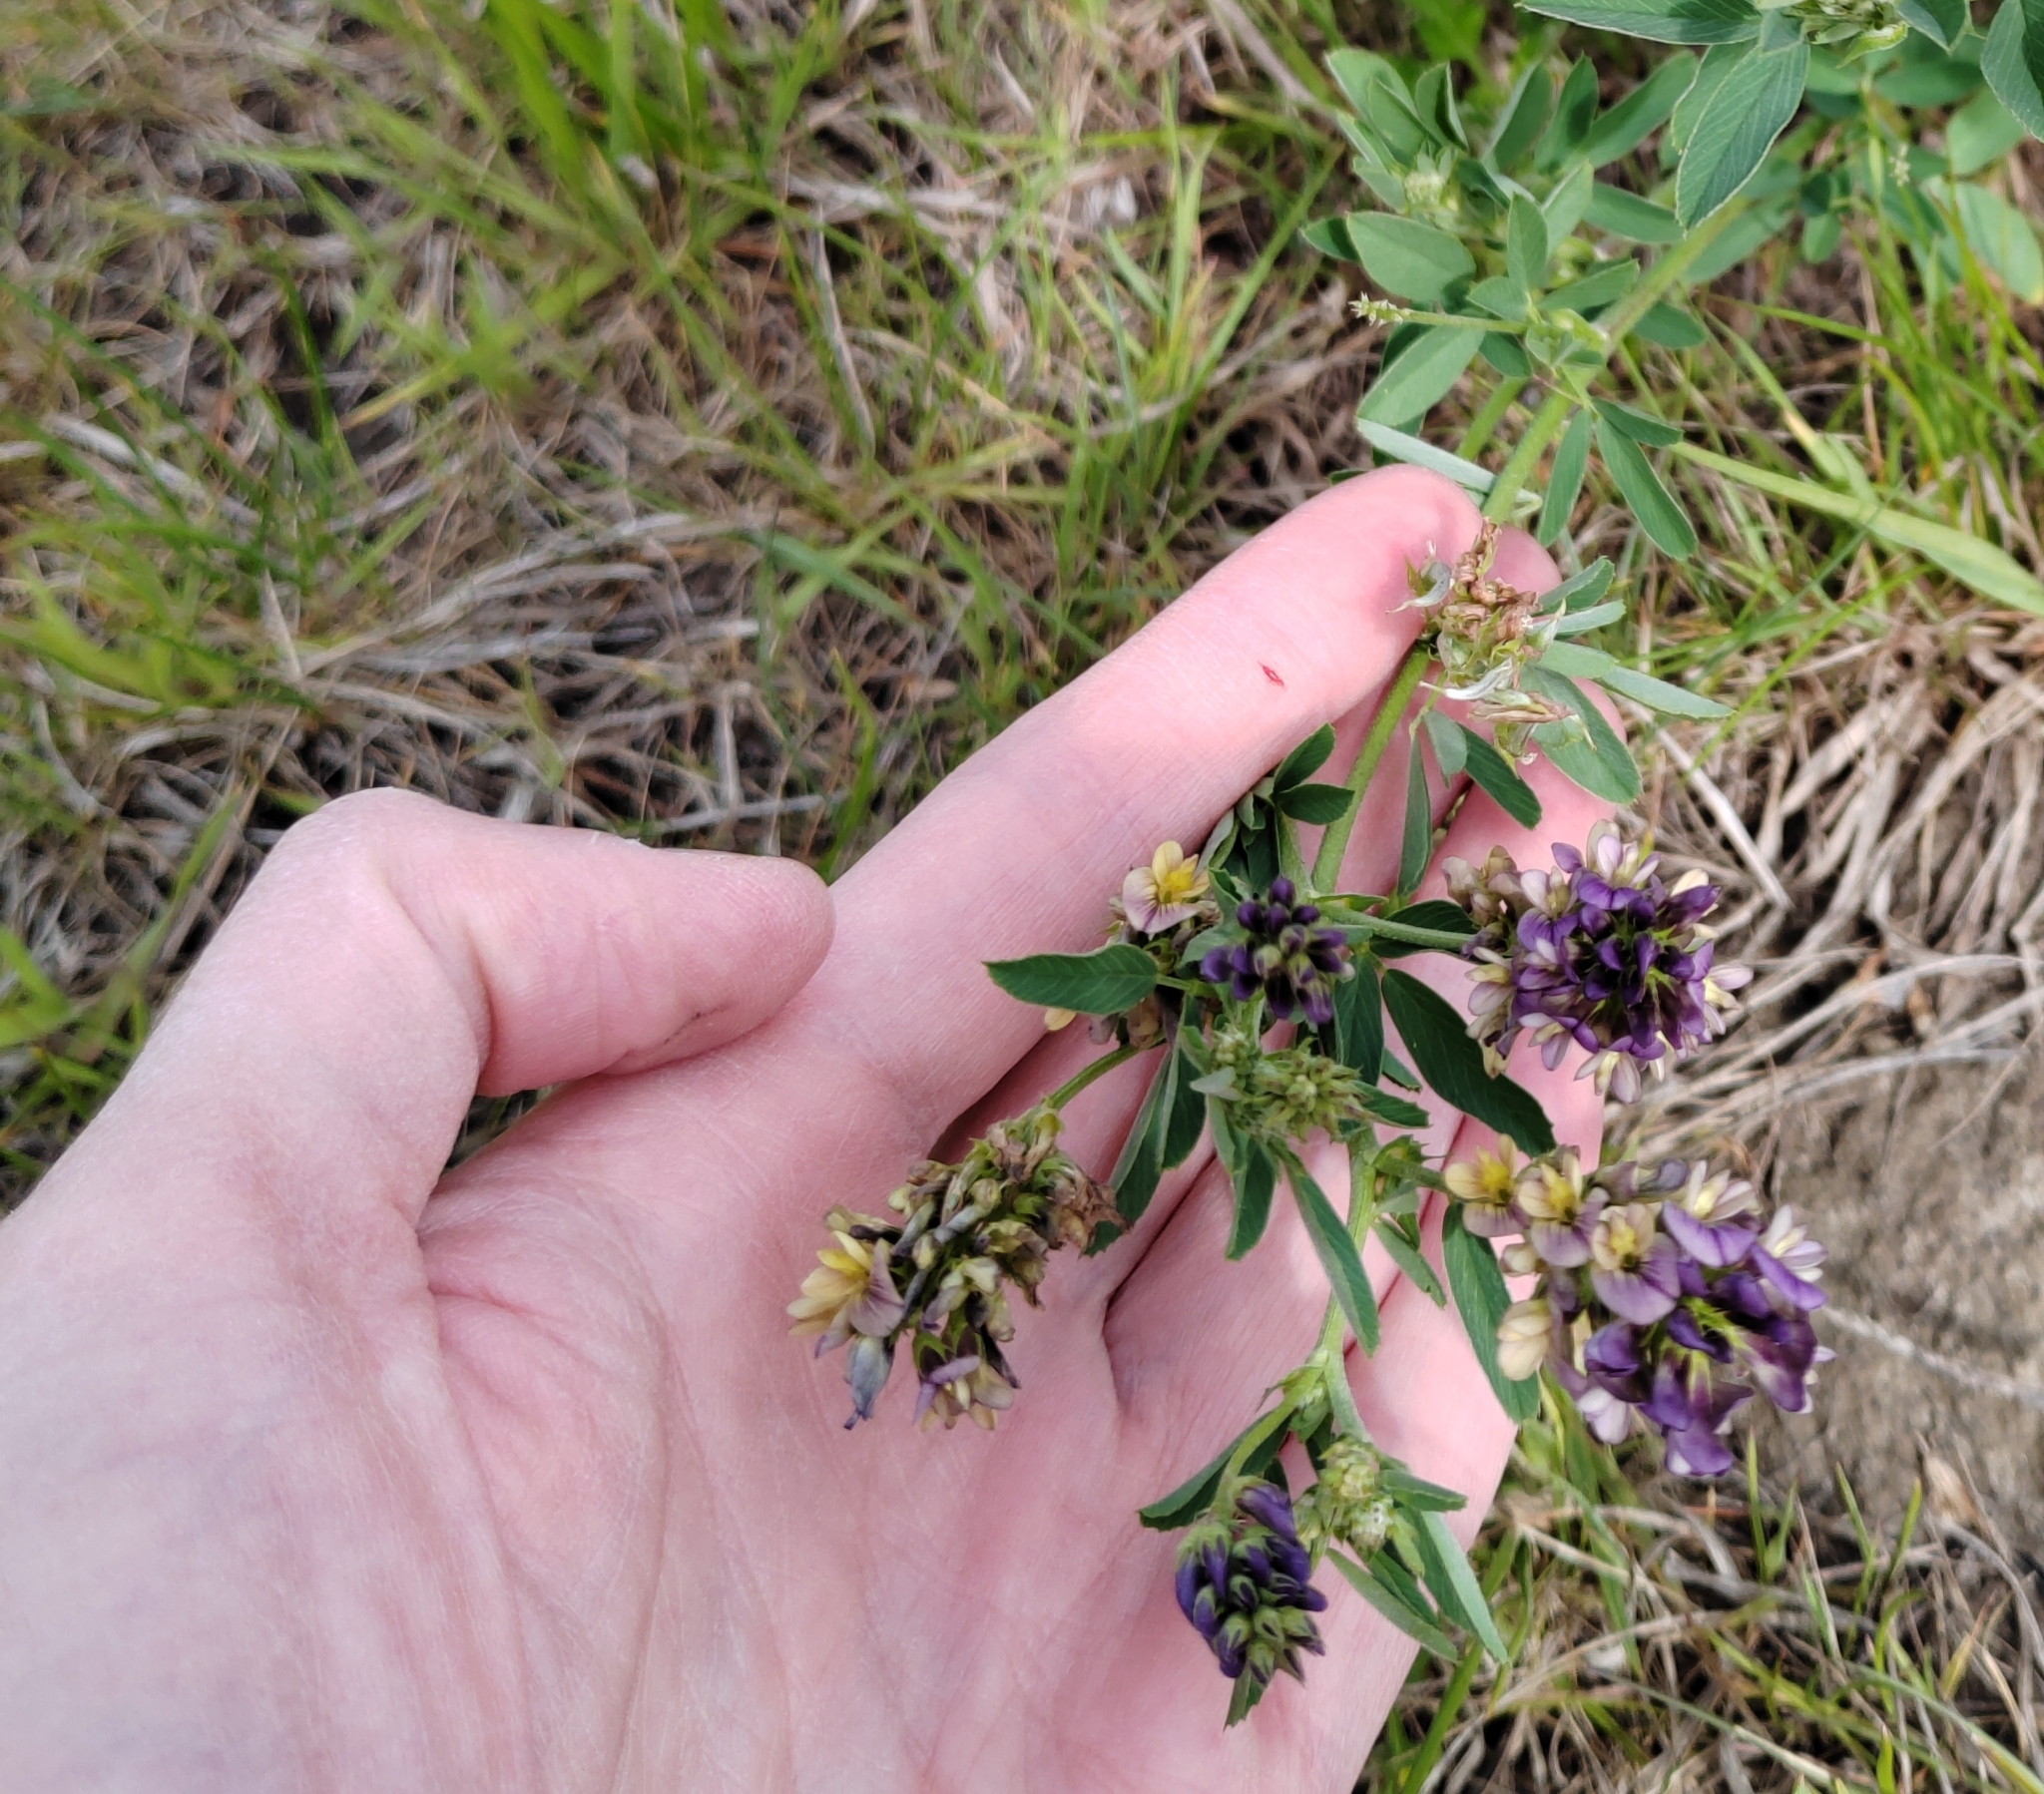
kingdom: Plantae
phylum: Tracheophyta
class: Magnoliopsida
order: Fabales
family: Fabaceae
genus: Medicago
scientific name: Medicago varia
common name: Sand lucerne
